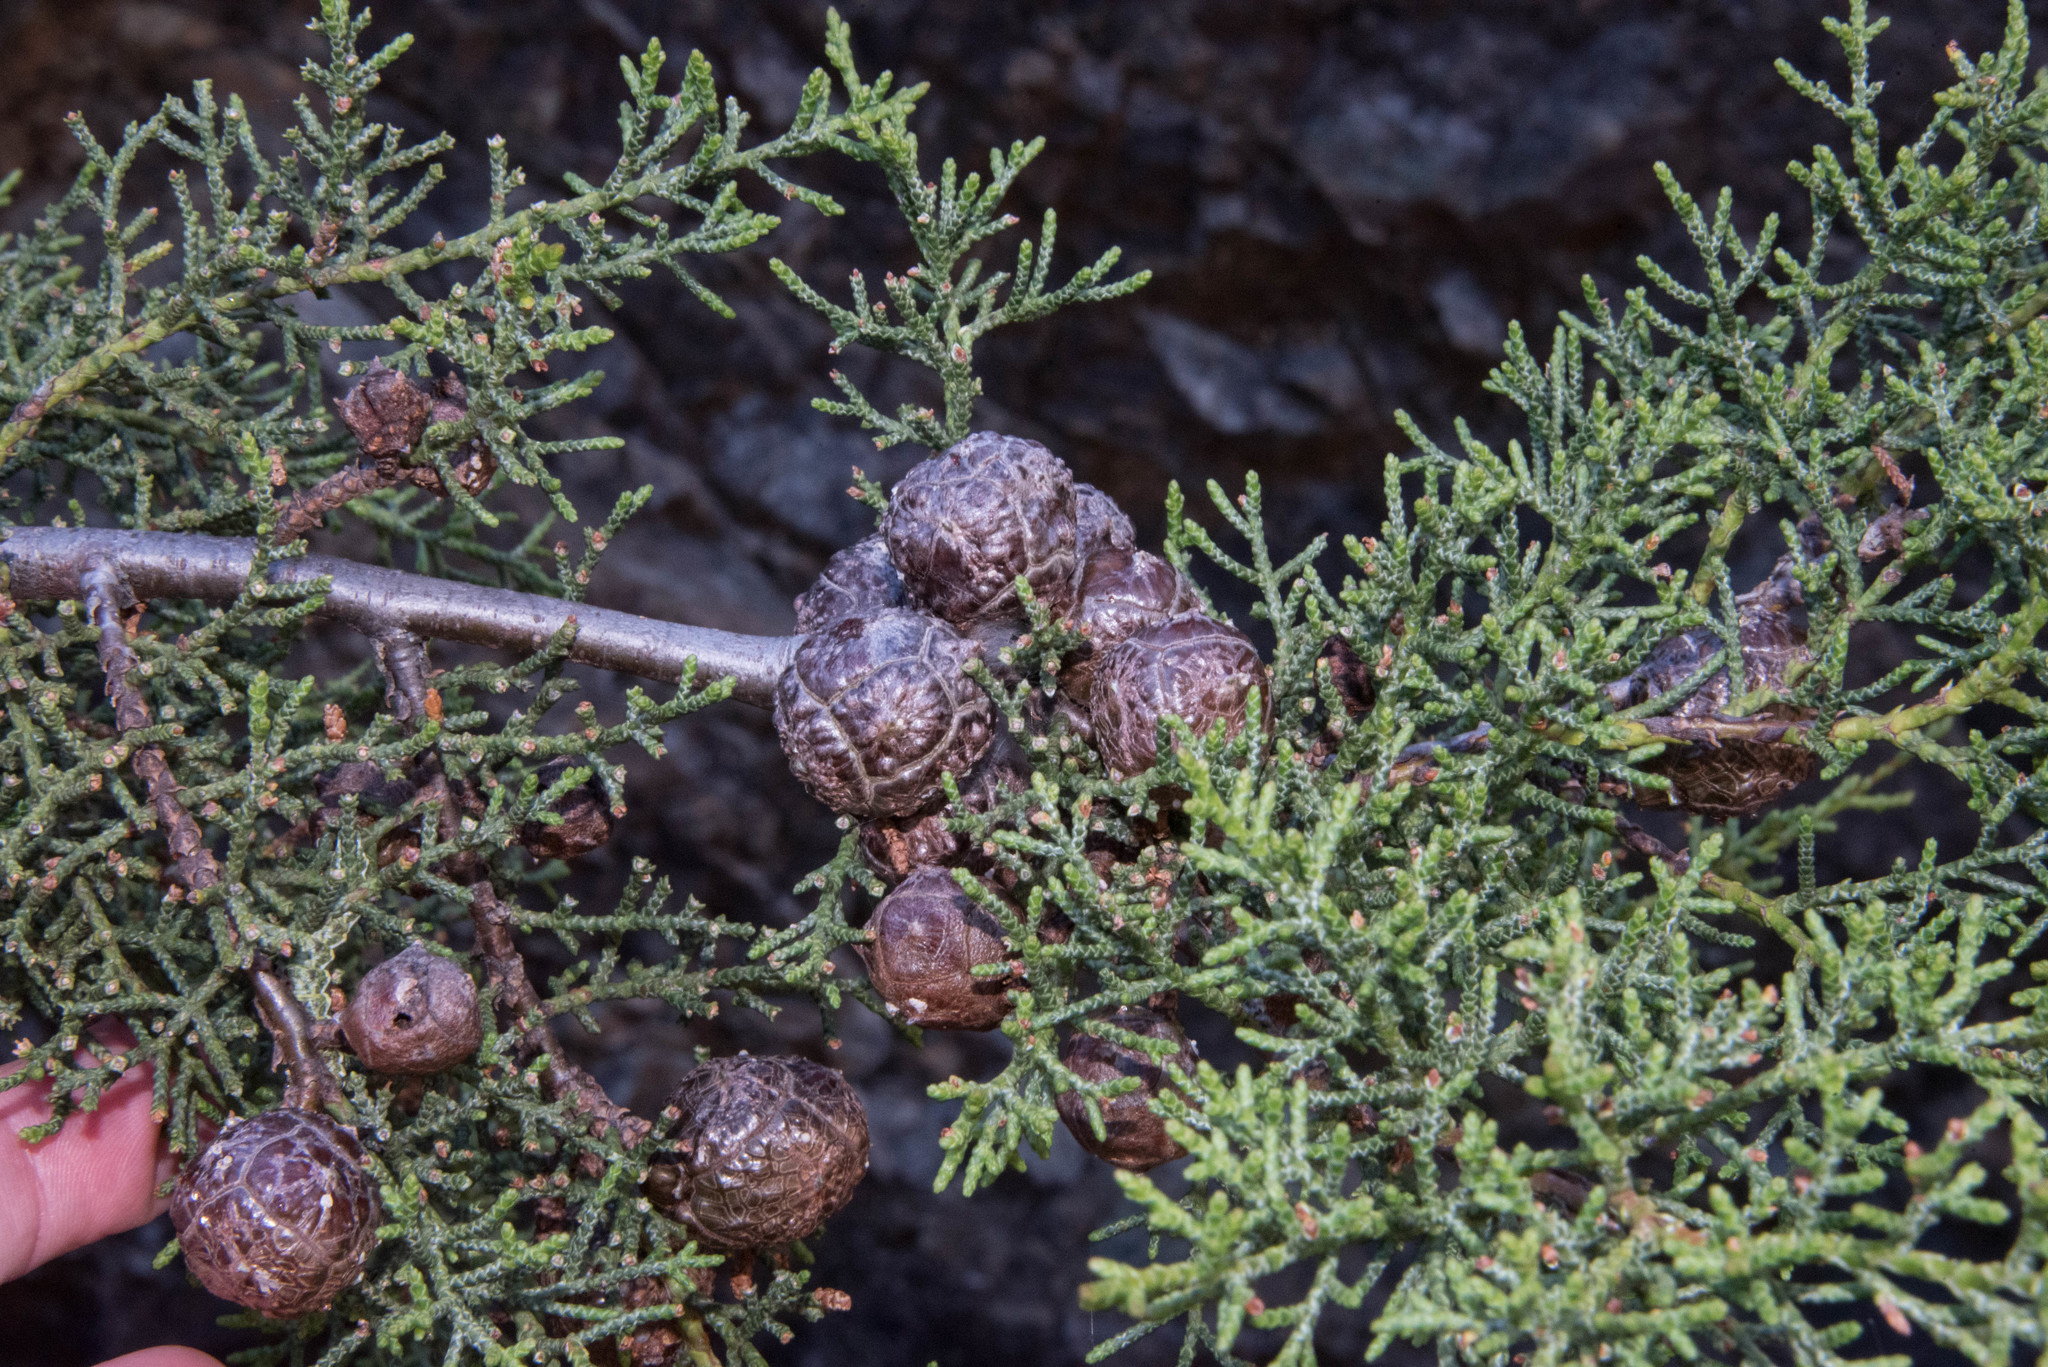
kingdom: Plantae
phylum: Tracheophyta
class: Pinopsida
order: Pinales
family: Cupressaceae
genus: Cupressus
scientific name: Cupressus sargentii
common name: Sargent cypress
